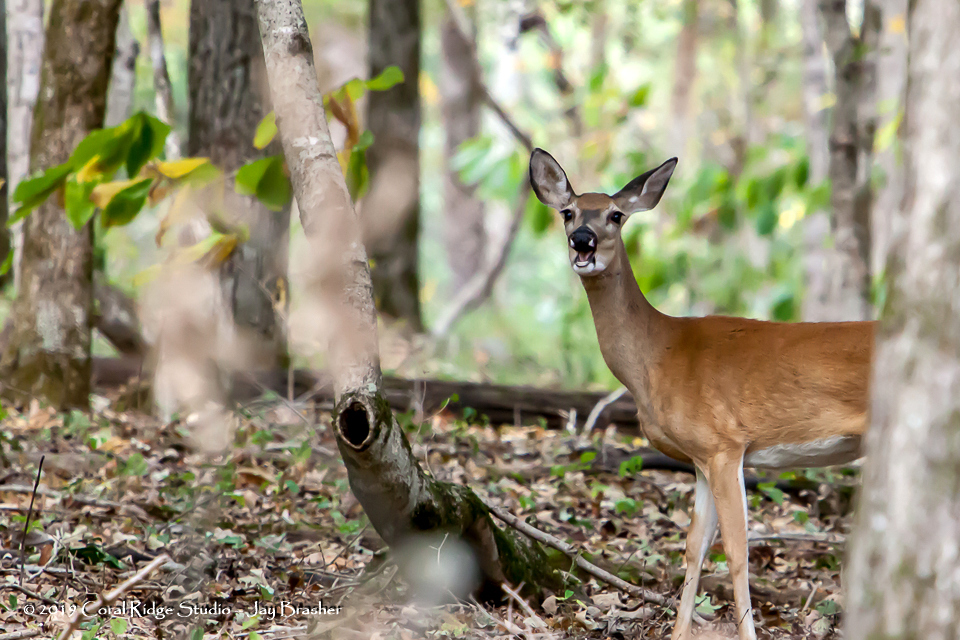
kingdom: Animalia
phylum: Chordata
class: Mammalia
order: Artiodactyla
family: Cervidae
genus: Odocoileus
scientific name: Odocoileus virginianus
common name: White-tailed deer
